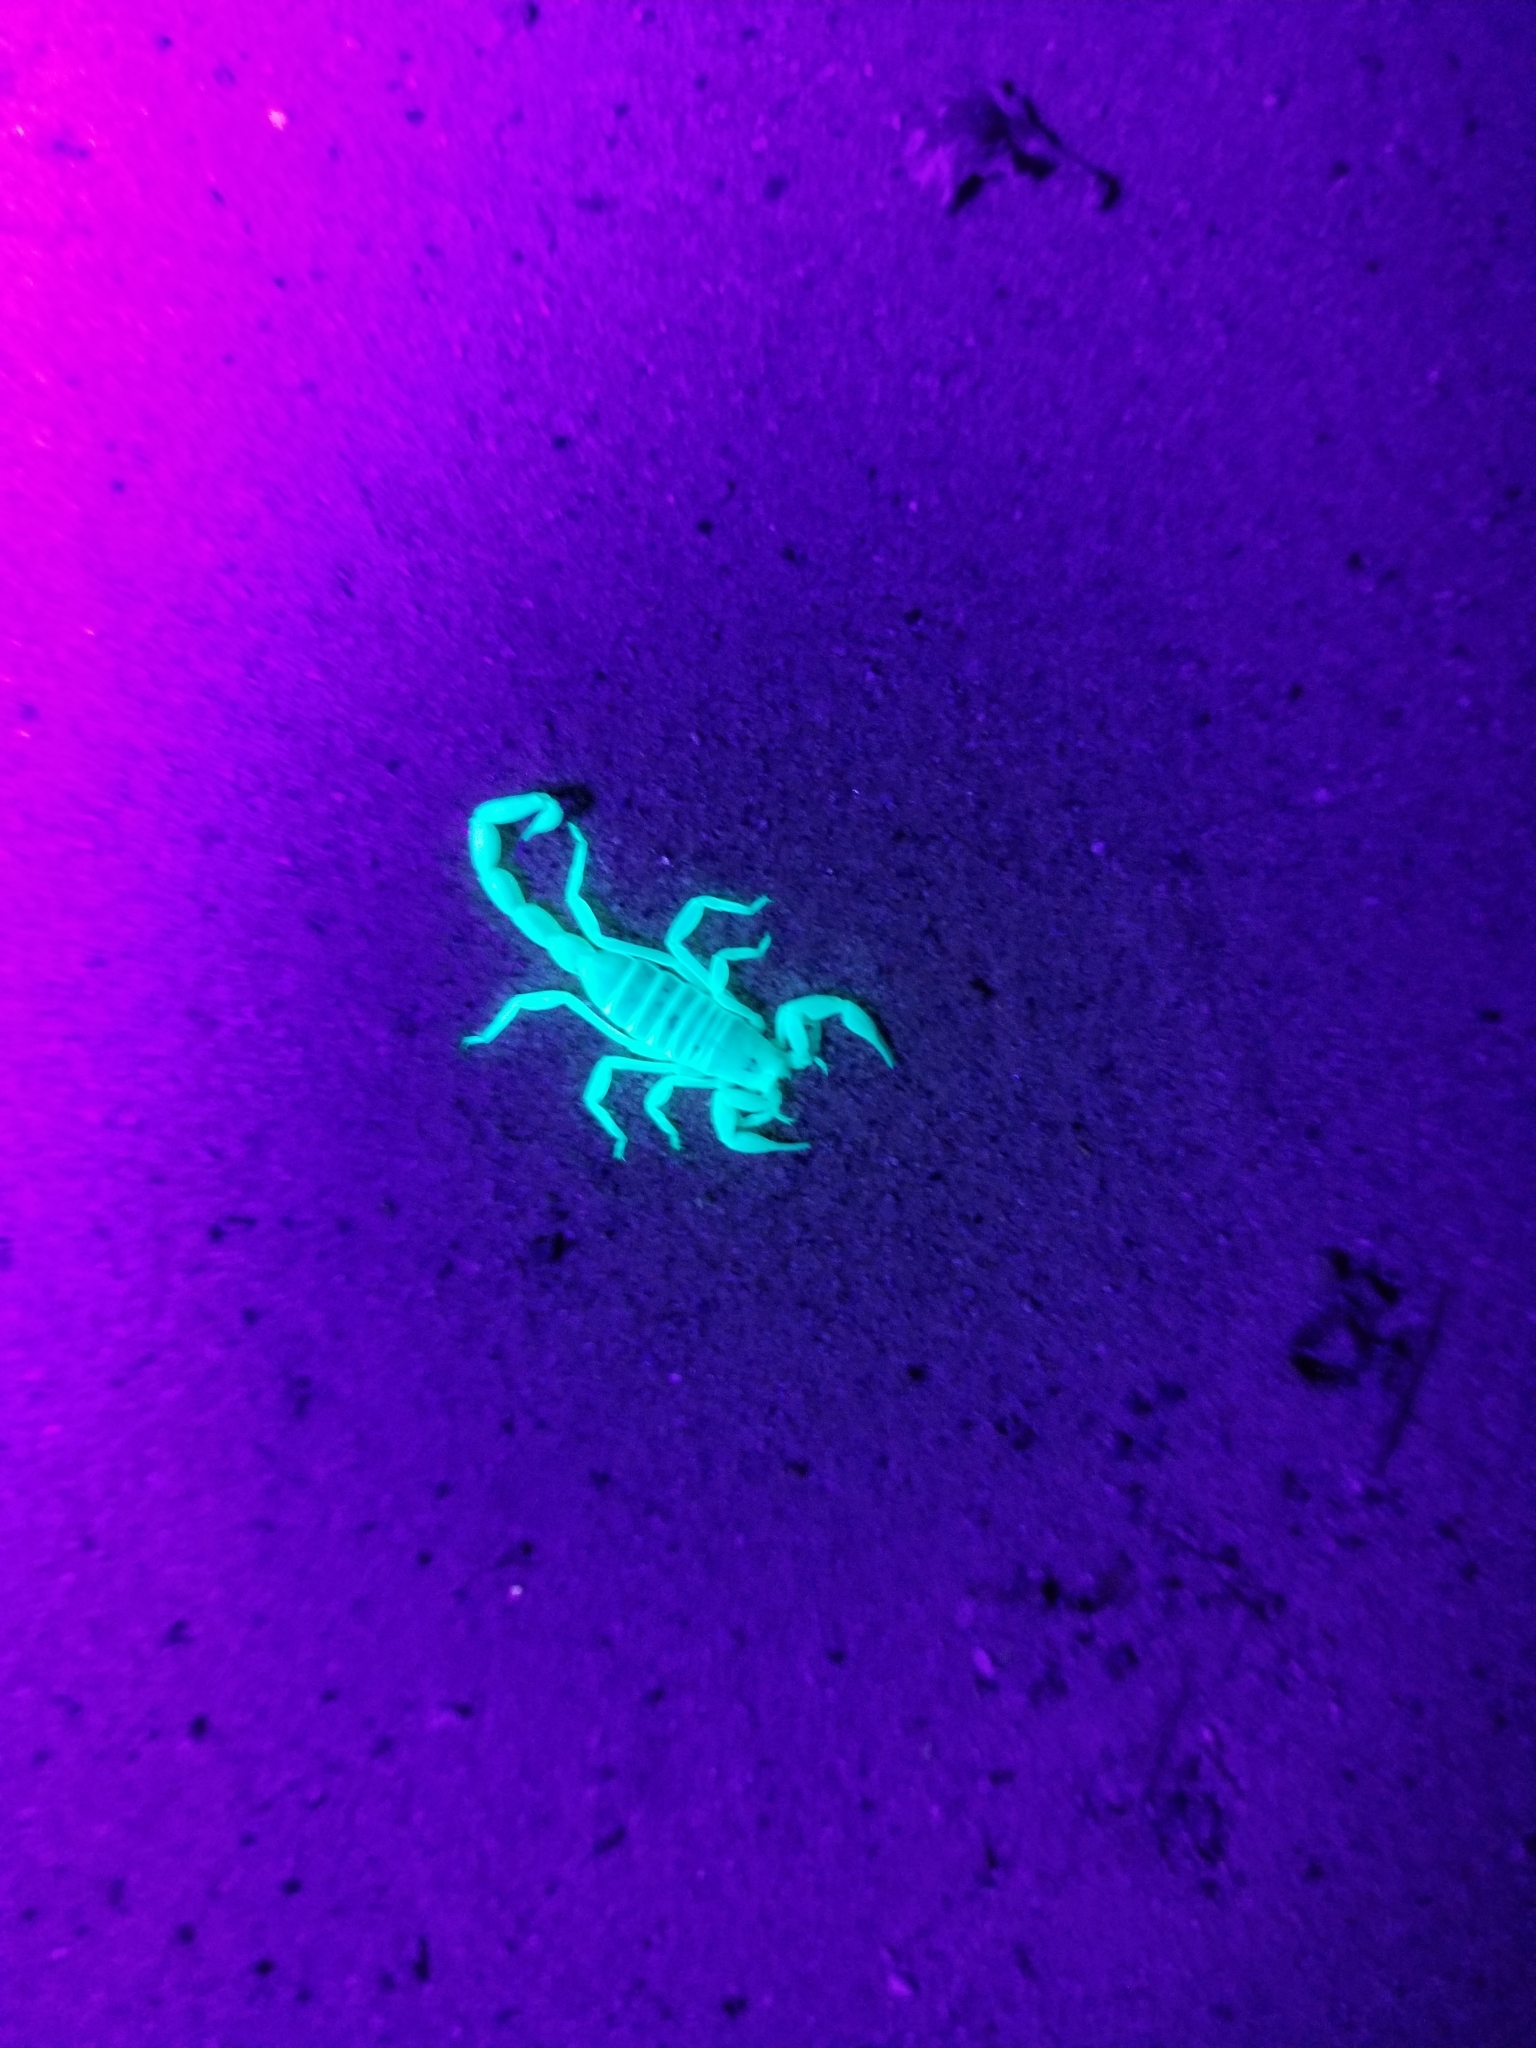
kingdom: Animalia
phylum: Arthropoda
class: Arachnida
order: Scorpiones
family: Vaejovidae
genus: Paruroctonus
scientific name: Paruroctonus xanthus
